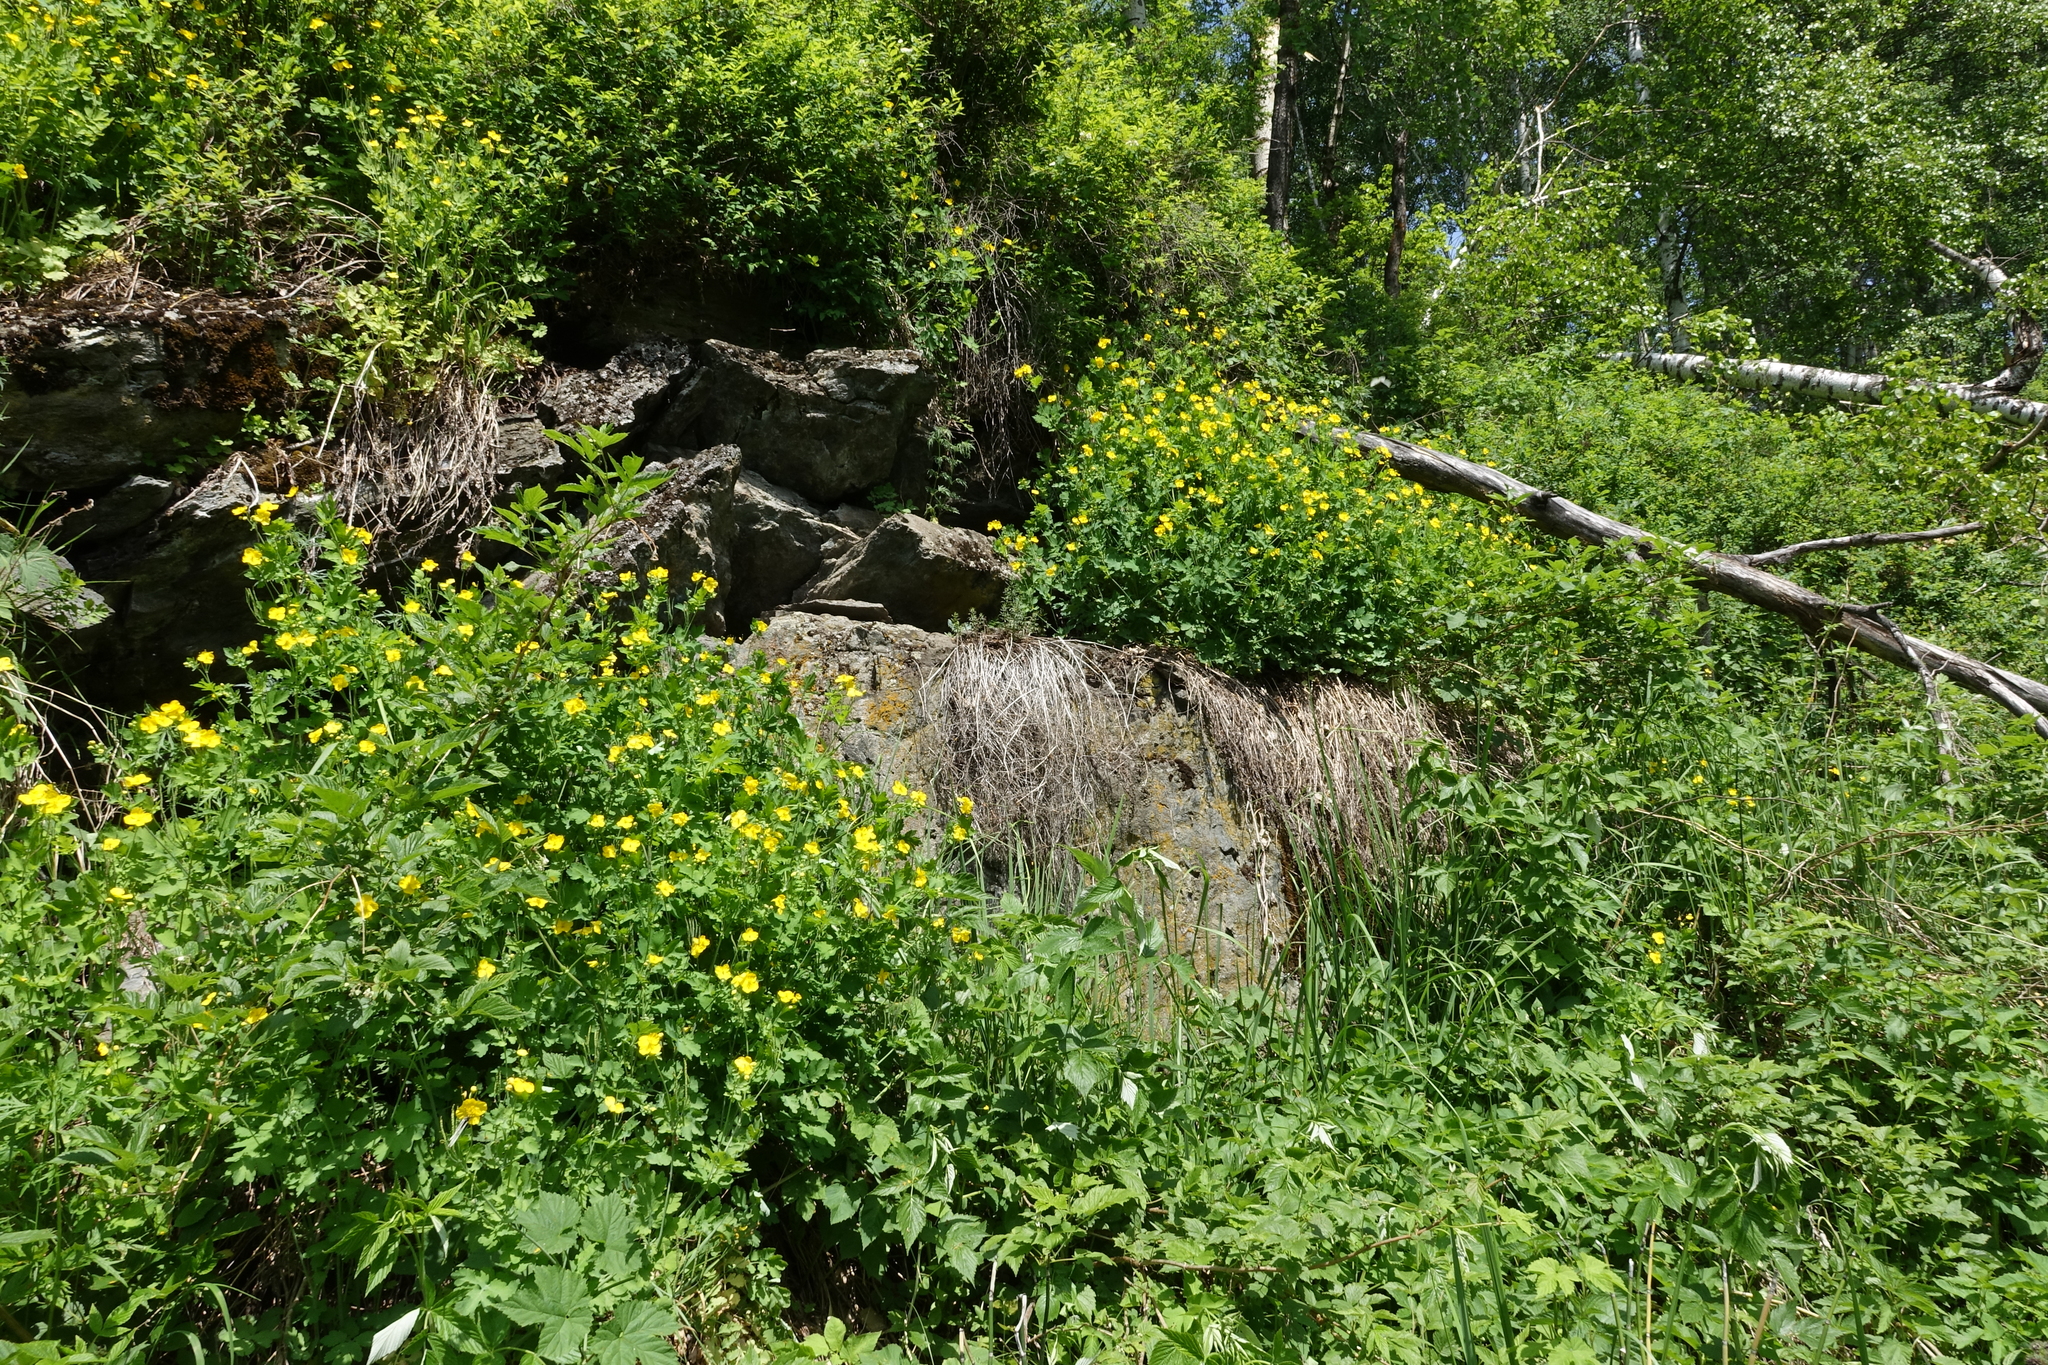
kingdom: Plantae
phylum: Tracheophyta
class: Magnoliopsida
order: Ranunculales
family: Papaveraceae
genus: Chelidonium
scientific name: Chelidonium majus
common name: Greater celandine
